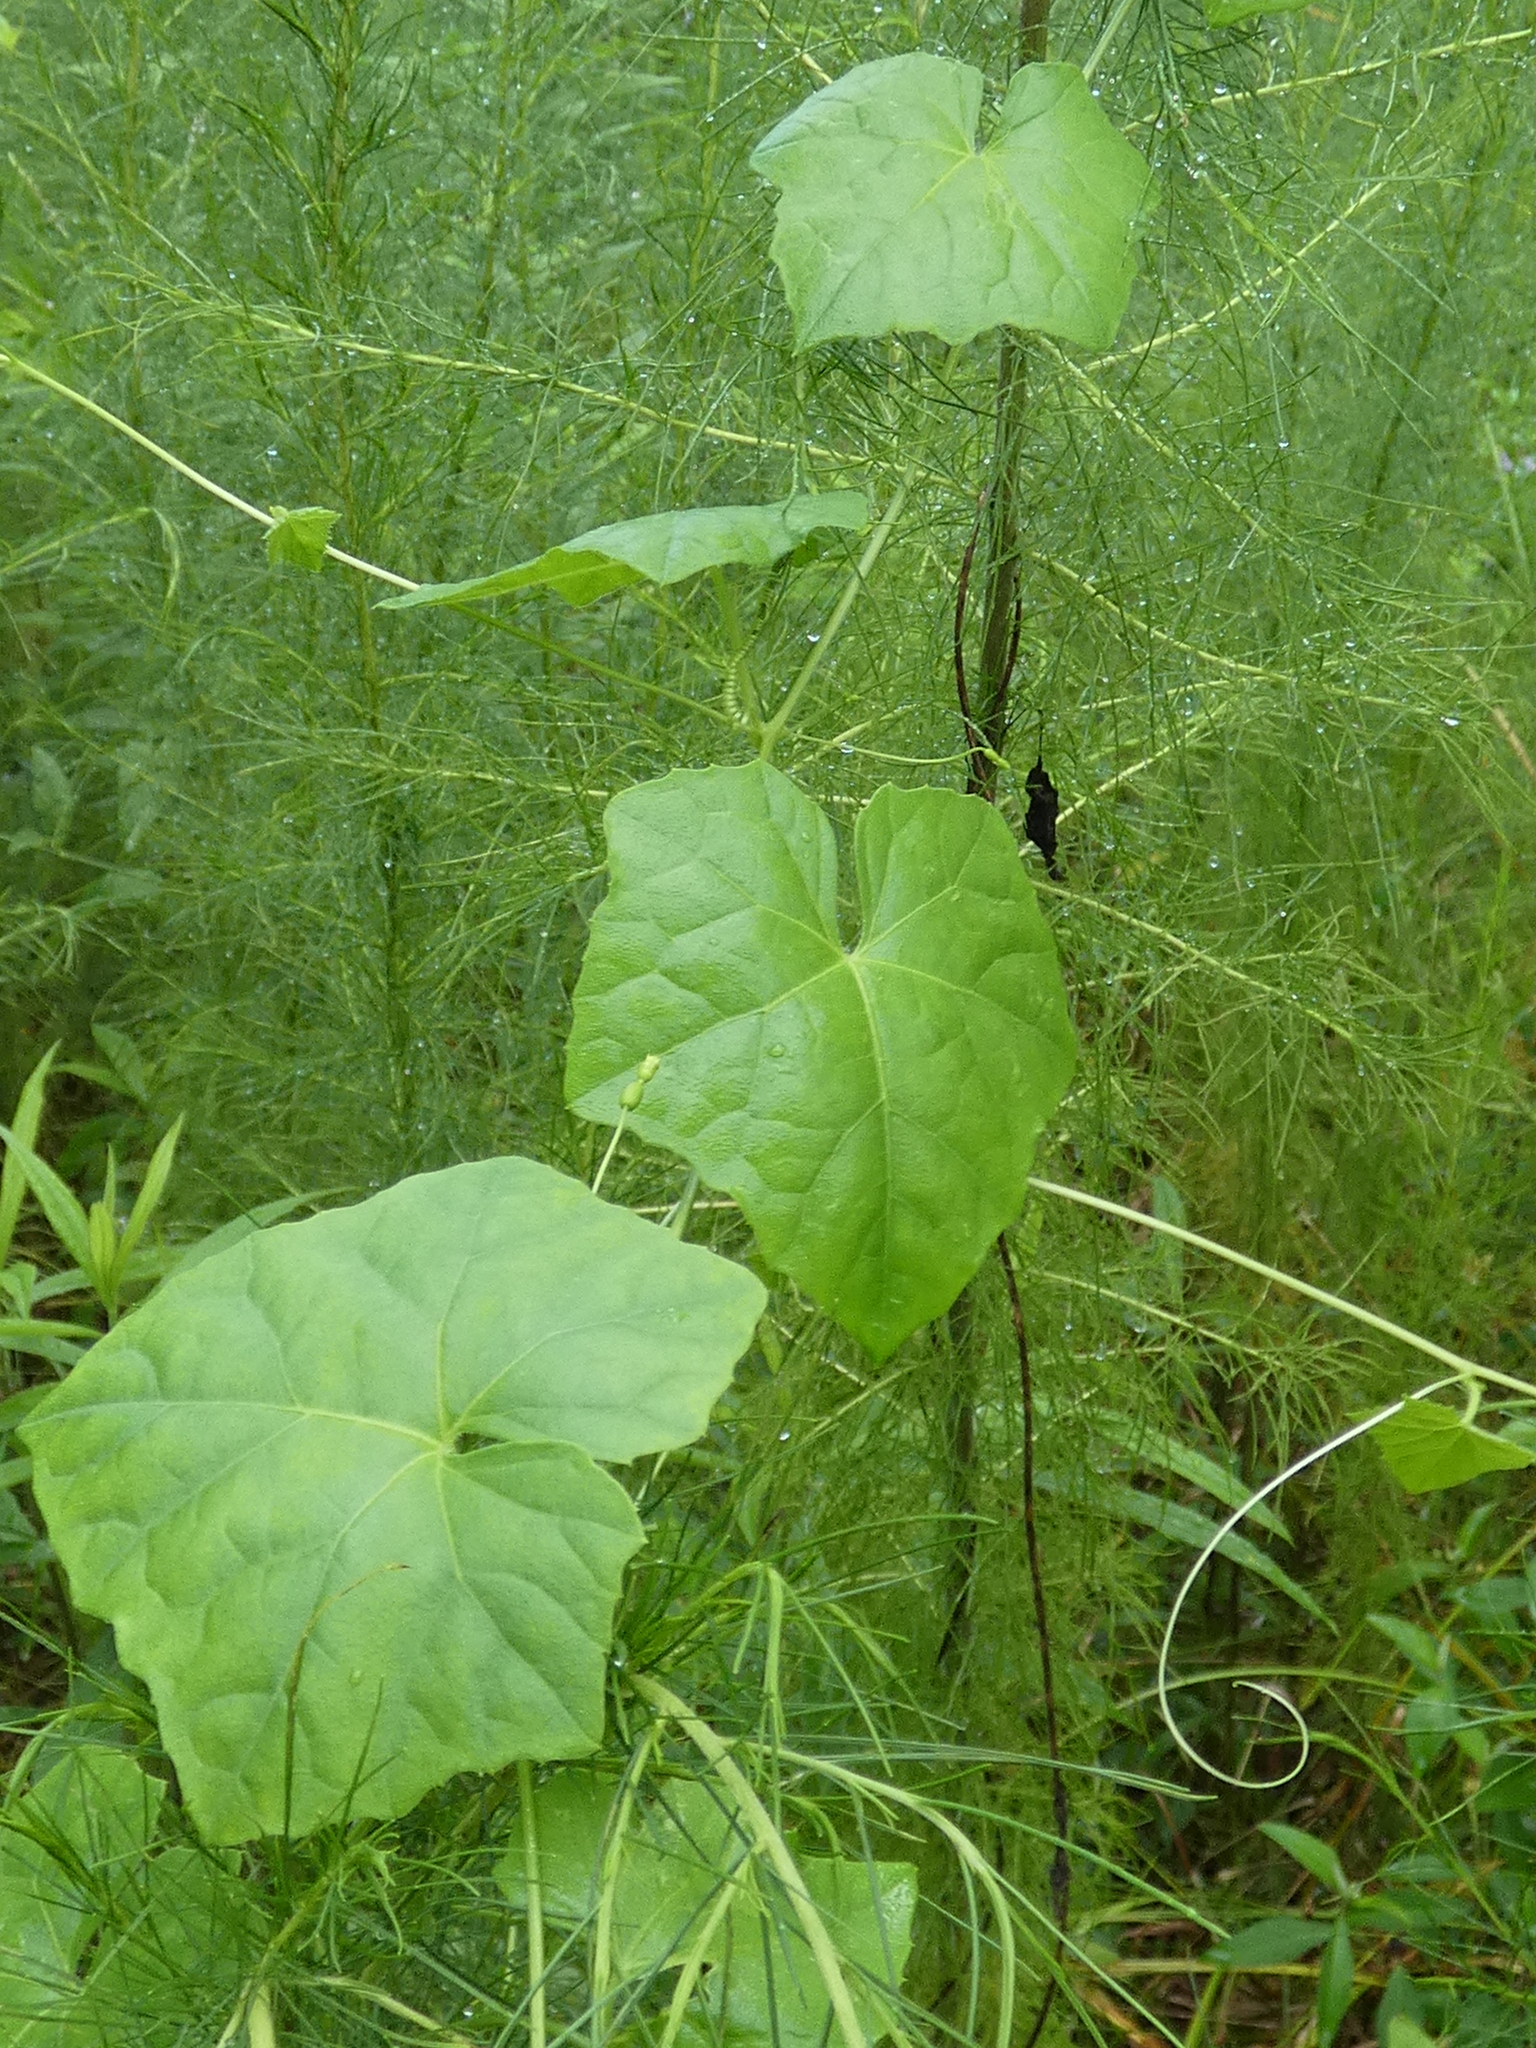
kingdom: Plantae
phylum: Tracheophyta
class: Magnoliopsida
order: Cucurbitales
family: Cucurbitaceae
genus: Melothria
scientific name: Melothria pendula
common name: Creeping-cucumber
